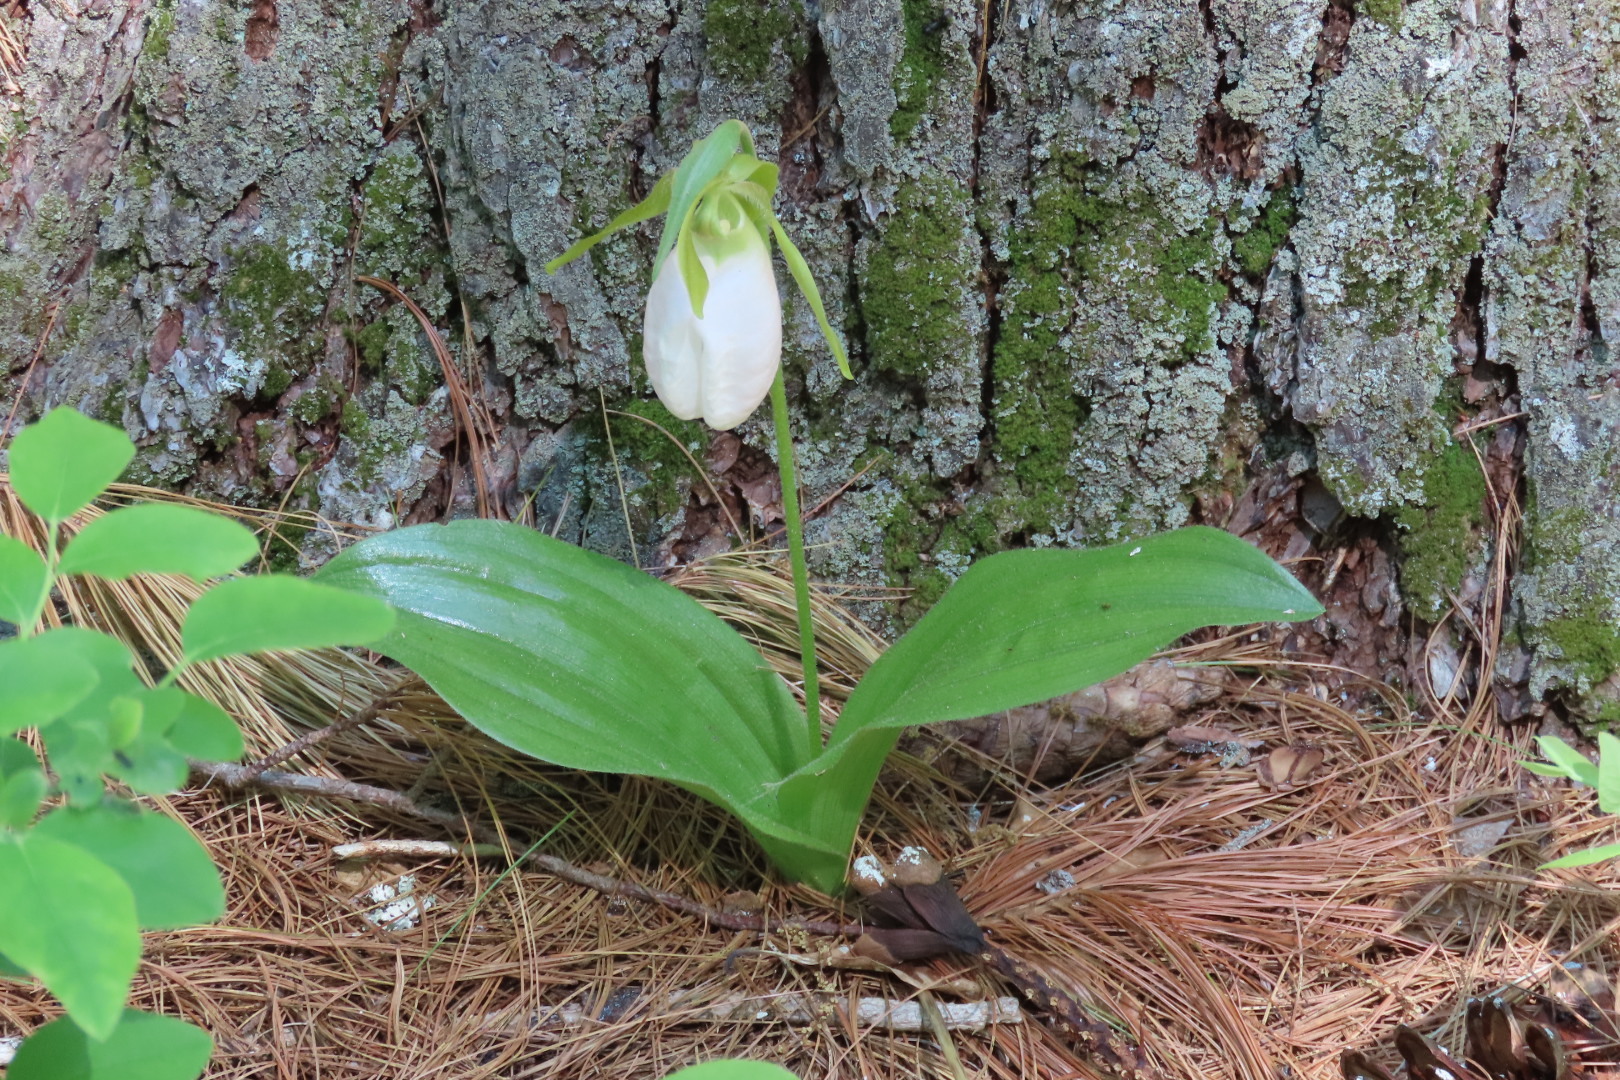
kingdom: Plantae
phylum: Tracheophyta
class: Liliopsida
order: Asparagales
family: Orchidaceae
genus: Cypripedium
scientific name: Cypripedium acaule
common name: Pink lady's-slipper
